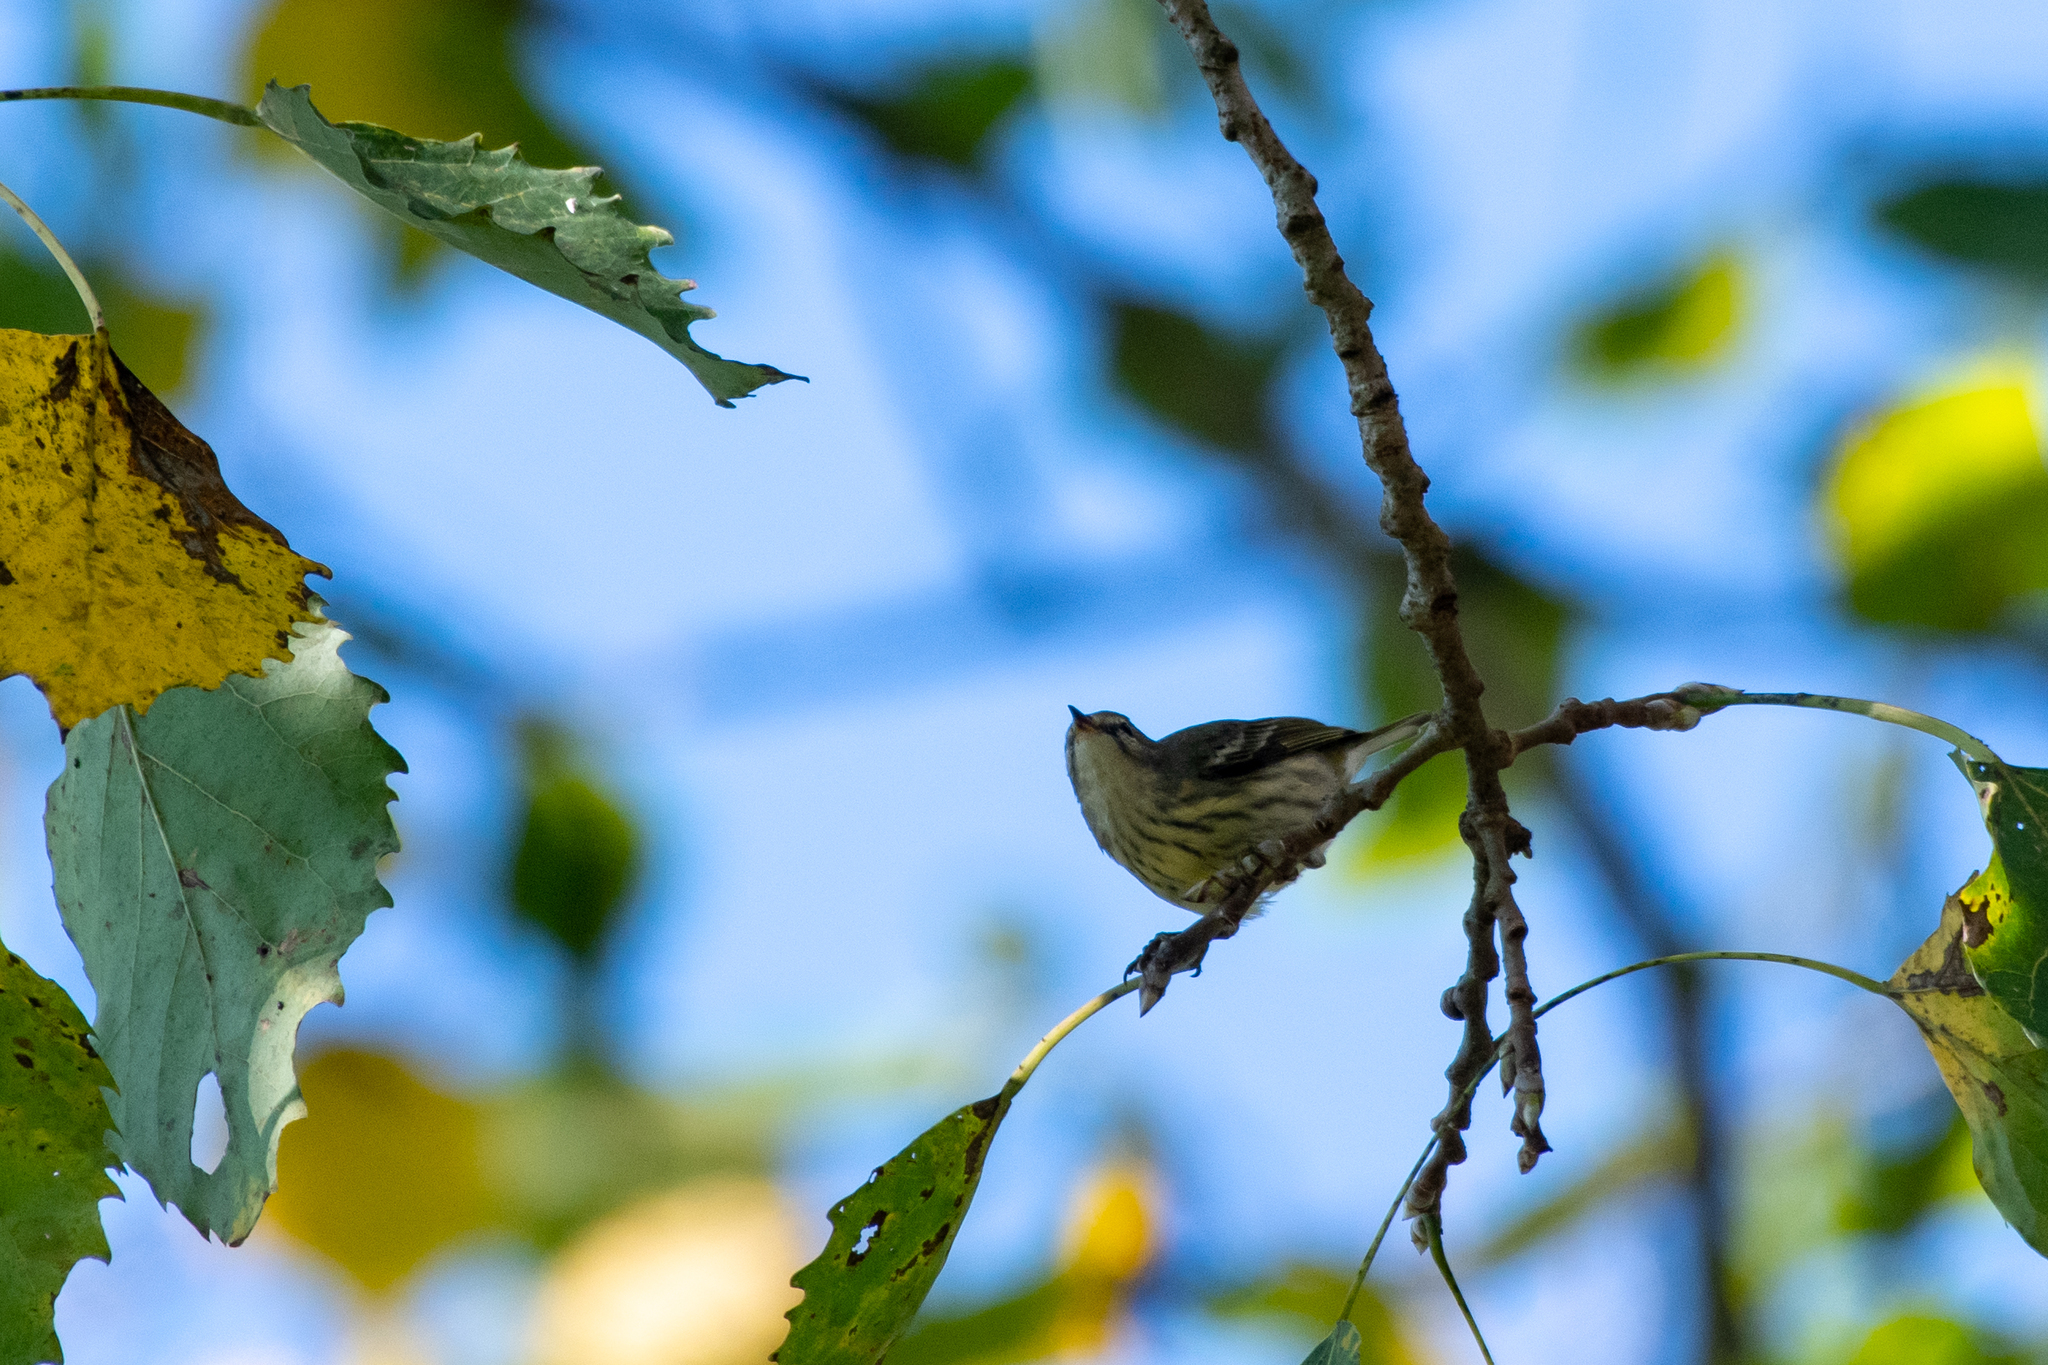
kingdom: Animalia
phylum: Chordata
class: Aves
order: Passeriformes
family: Parulidae
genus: Setophaga
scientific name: Setophaga tigrina
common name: Cape may warbler
